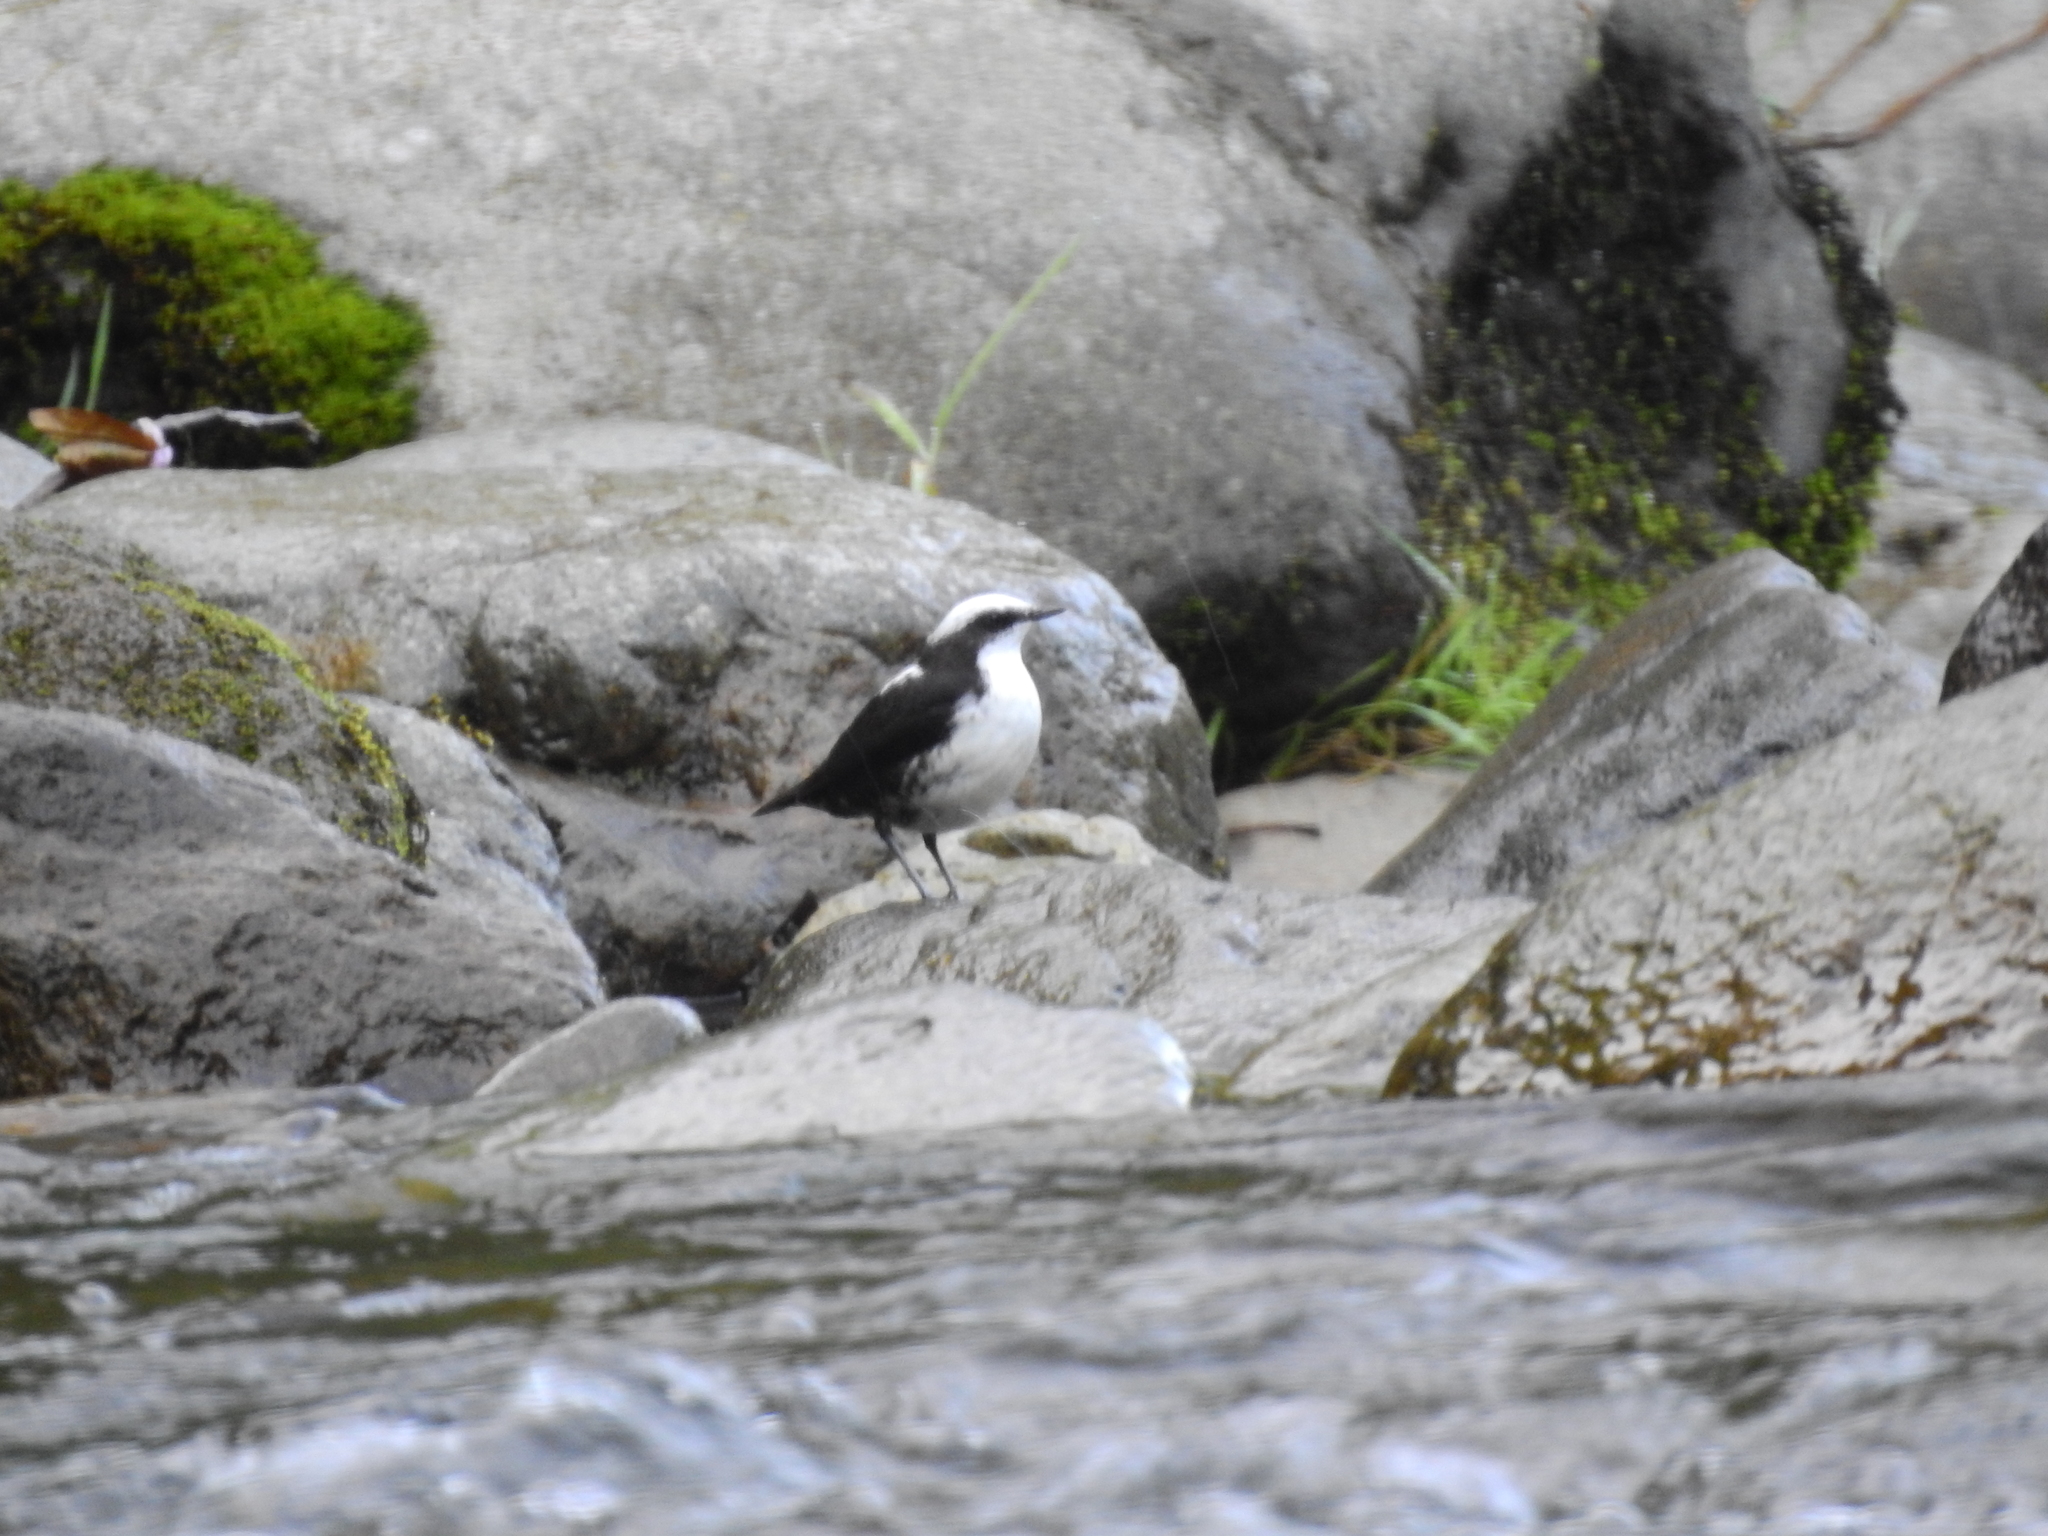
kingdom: Animalia
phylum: Chordata
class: Aves
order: Passeriformes
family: Cinclidae
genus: Cinclus
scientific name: Cinclus leucocephalus
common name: White-capped dipper
